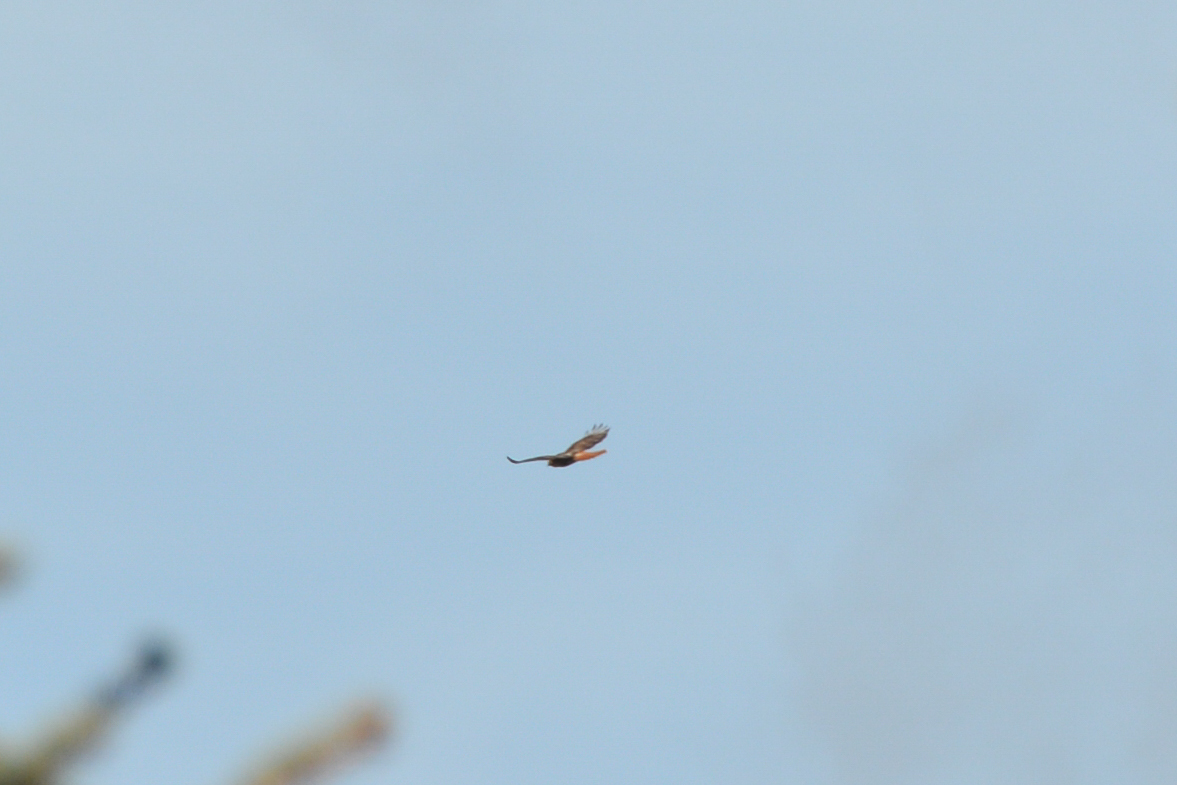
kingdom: Animalia
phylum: Chordata
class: Aves
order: Accipitriformes
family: Accipitridae
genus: Buteo
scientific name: Buteo jamaicensis
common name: Red-tailed hawk
